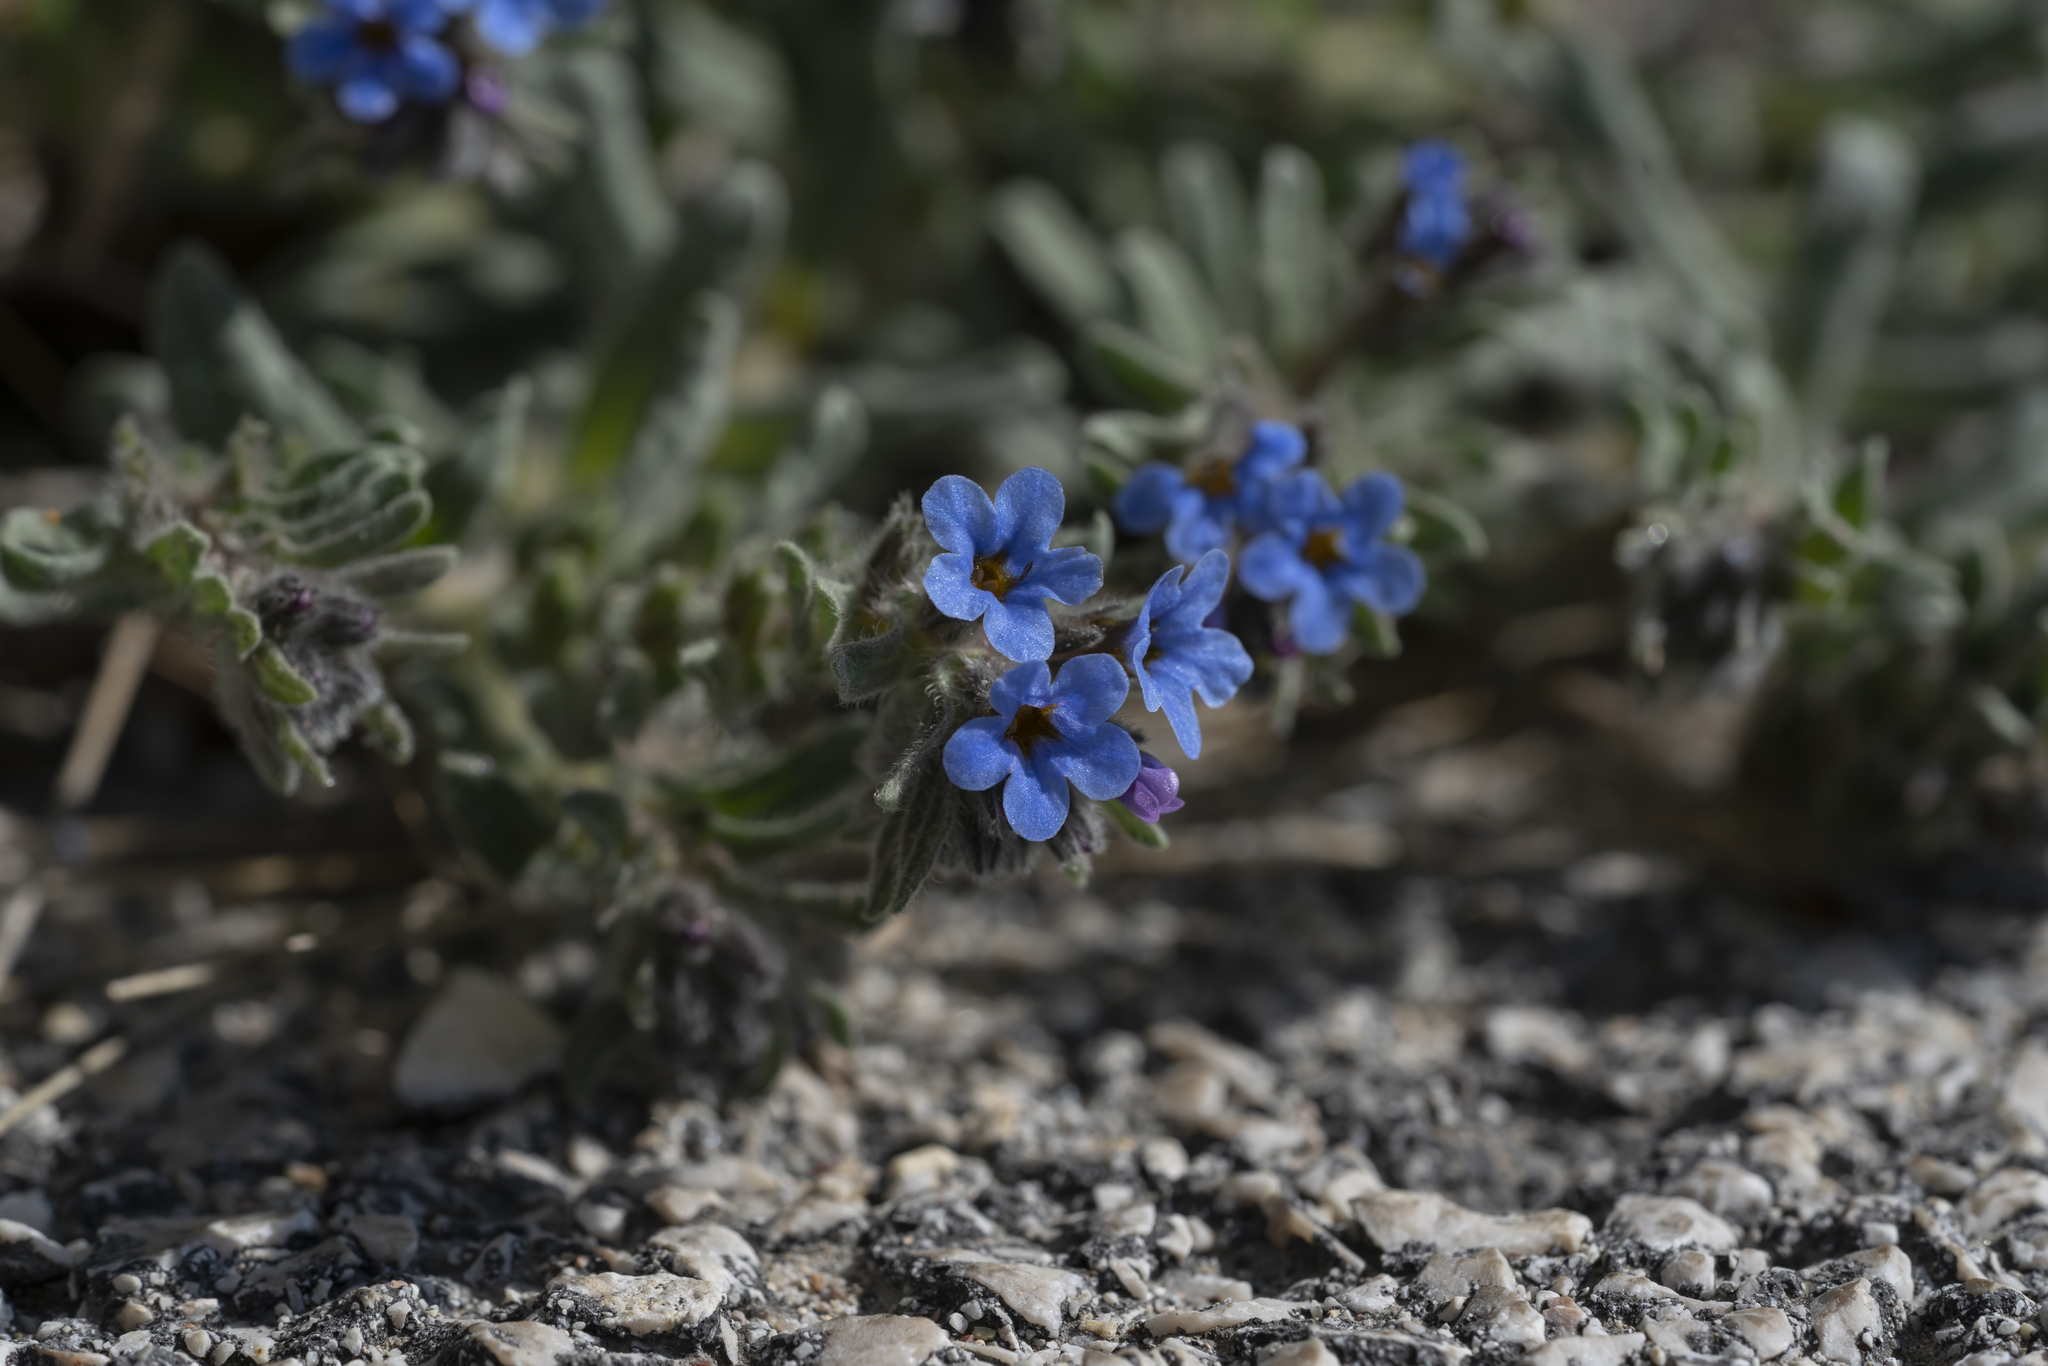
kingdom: Plantae
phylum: Tracheophyta
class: Magnoliopsida
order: Boraginales
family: Boraginaceae
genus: Alkanna
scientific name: Alkanna tinctoria
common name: Dyer's-alkanet
